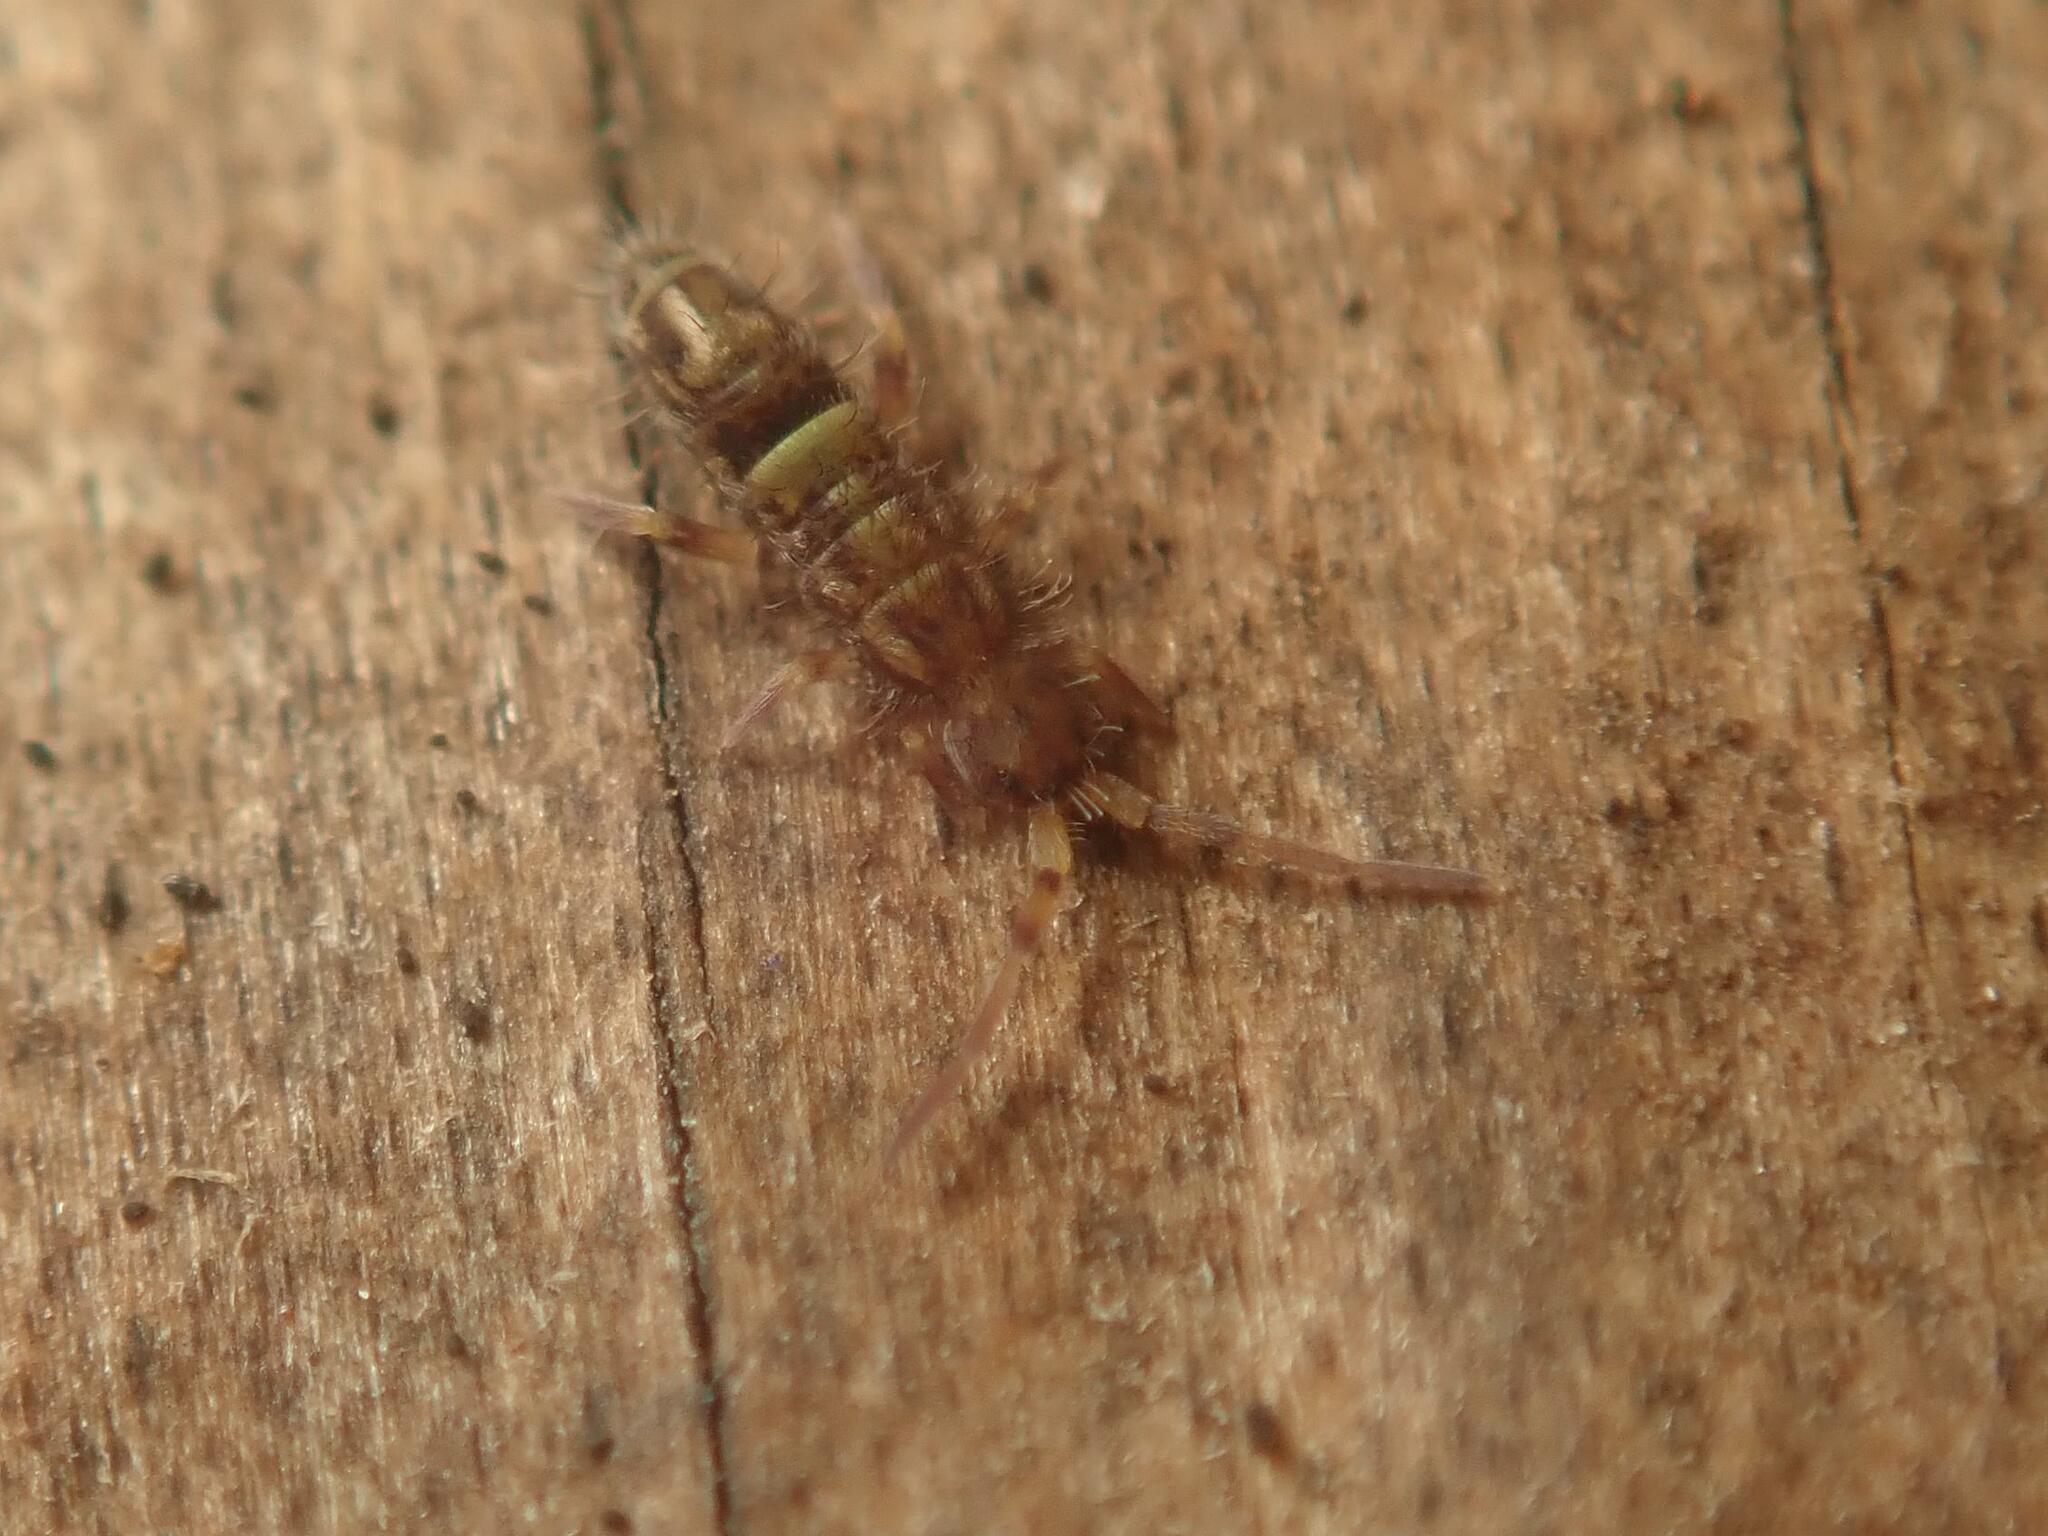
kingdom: Animalia
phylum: Arthropoda
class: Collembola
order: Entomobryomorpha
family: Orchesellidae
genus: Orchesella
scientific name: Orchesella cincta
